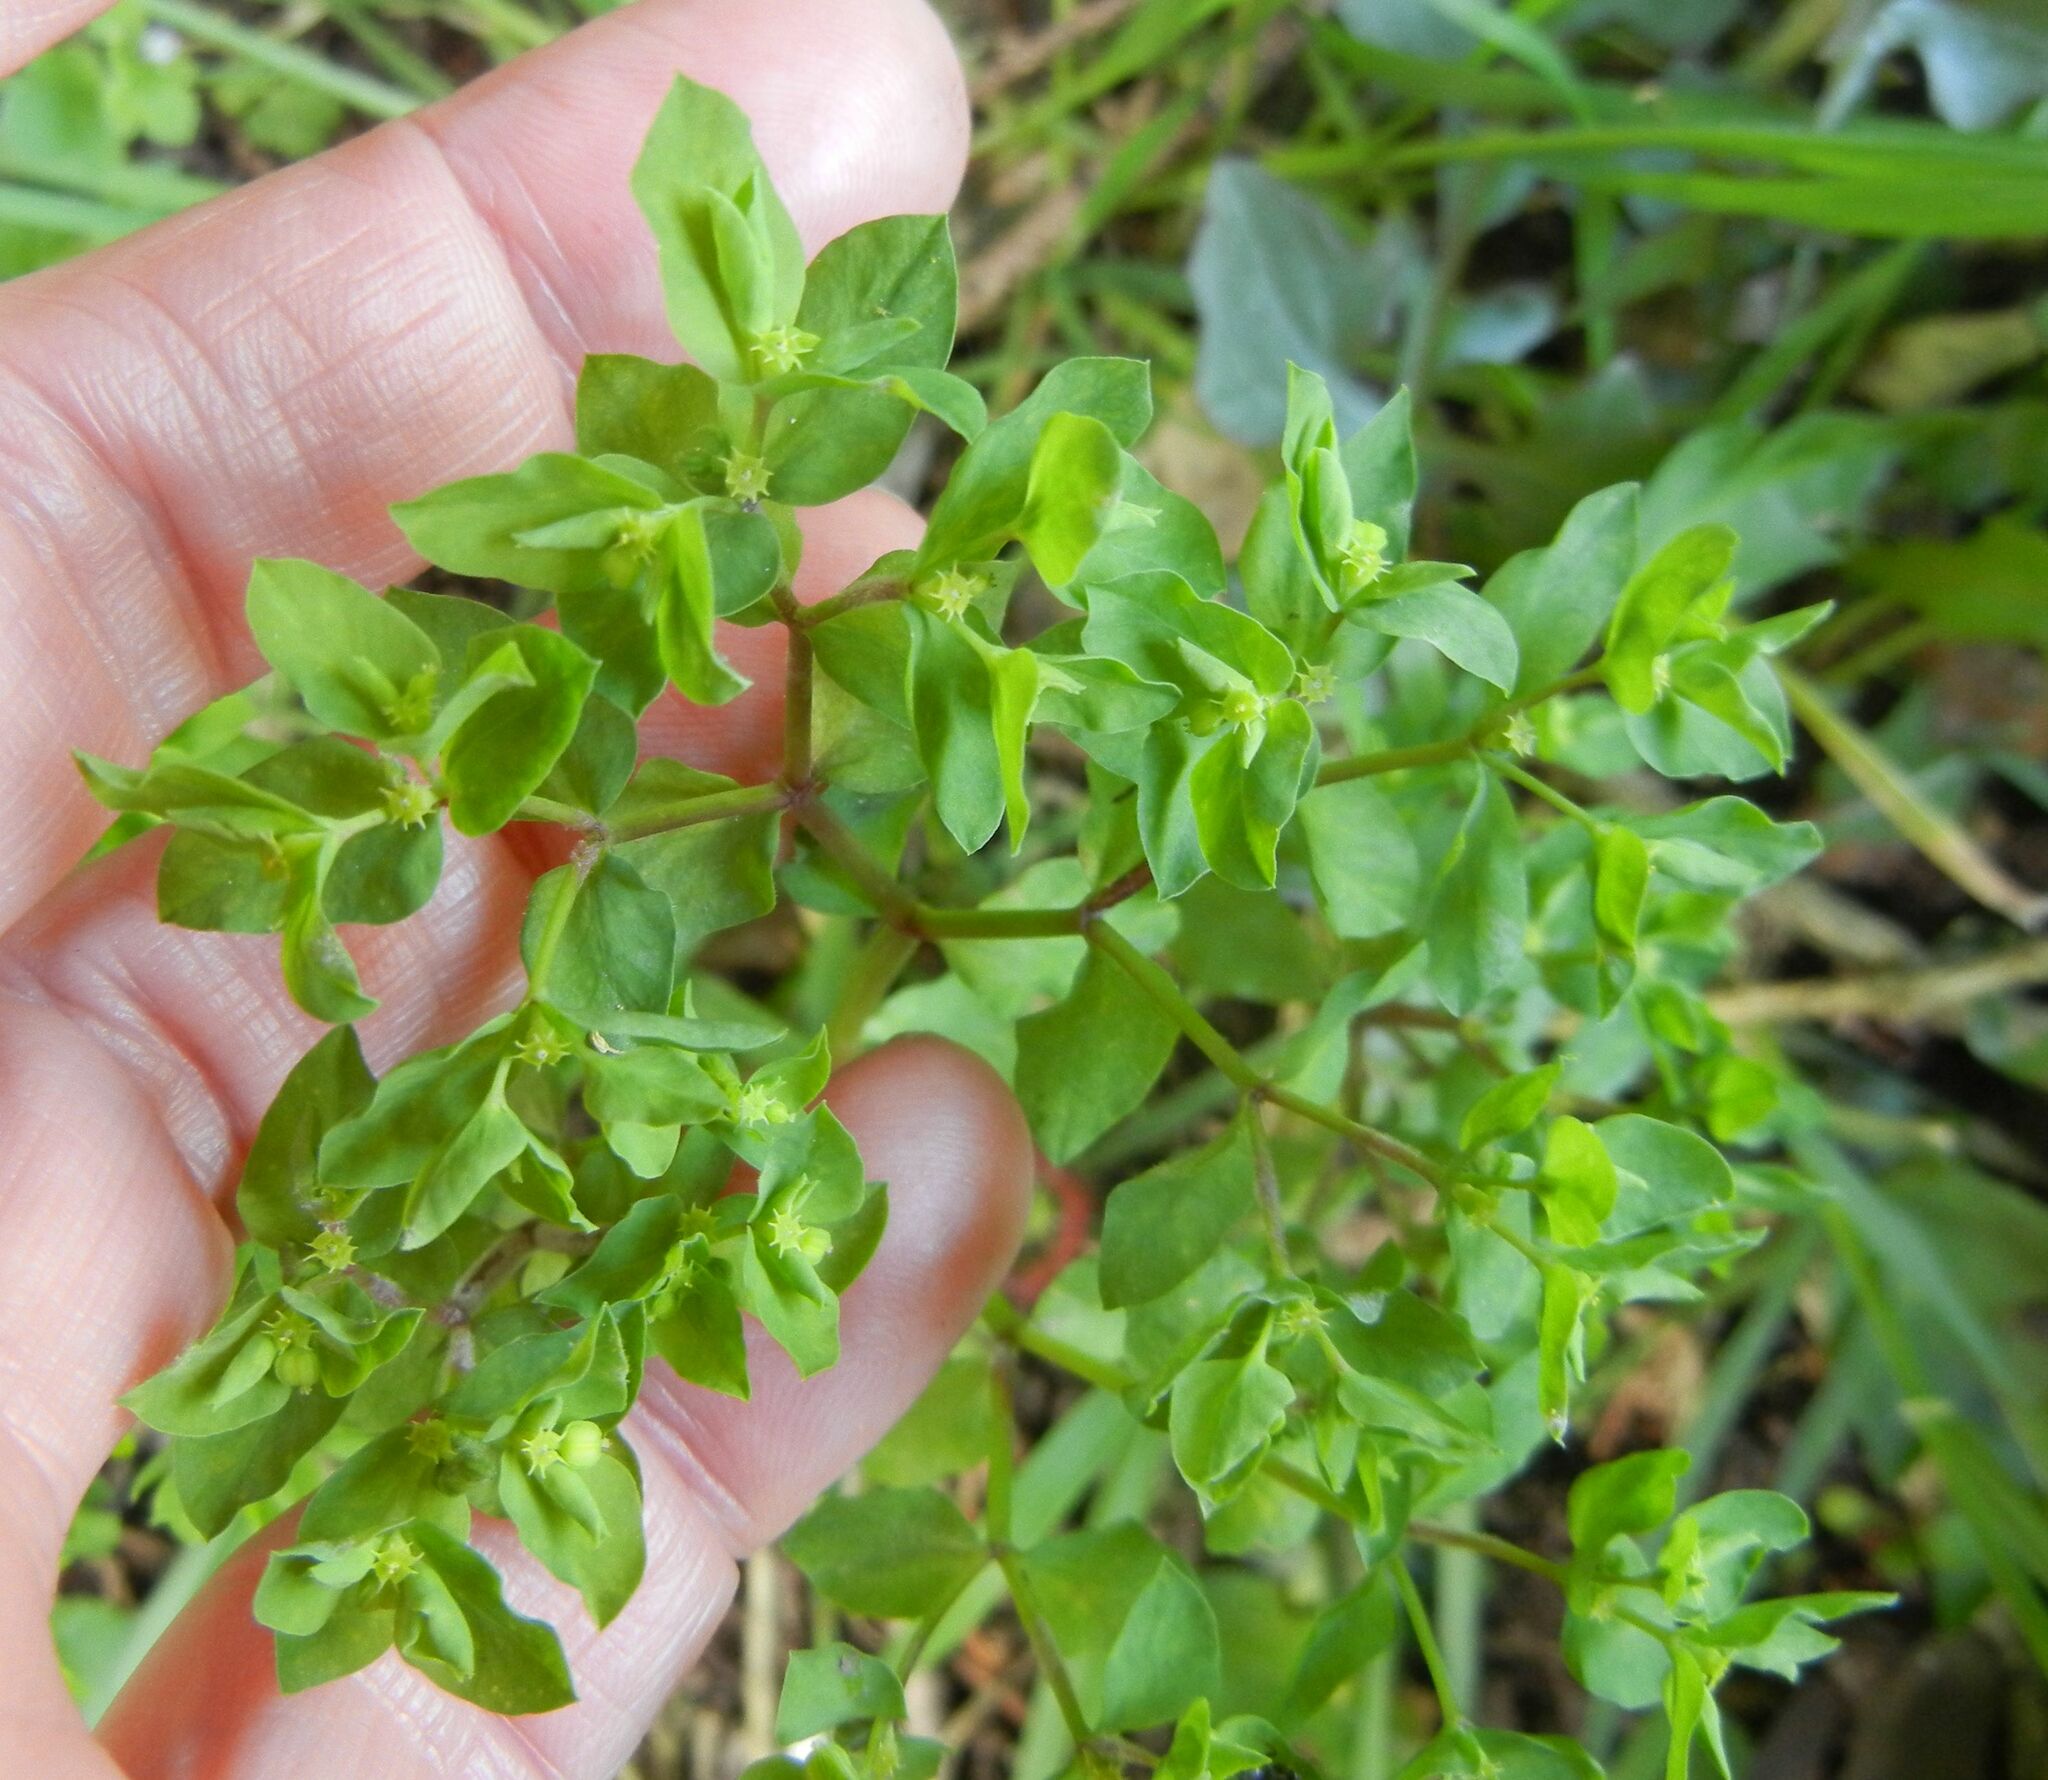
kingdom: Plantae
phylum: Tracheophyta
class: Magnoliopsida
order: Malpighiales
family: Euphorbiaceae
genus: Euphorbia
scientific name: Euphorbia peplus
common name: Petty spurge
